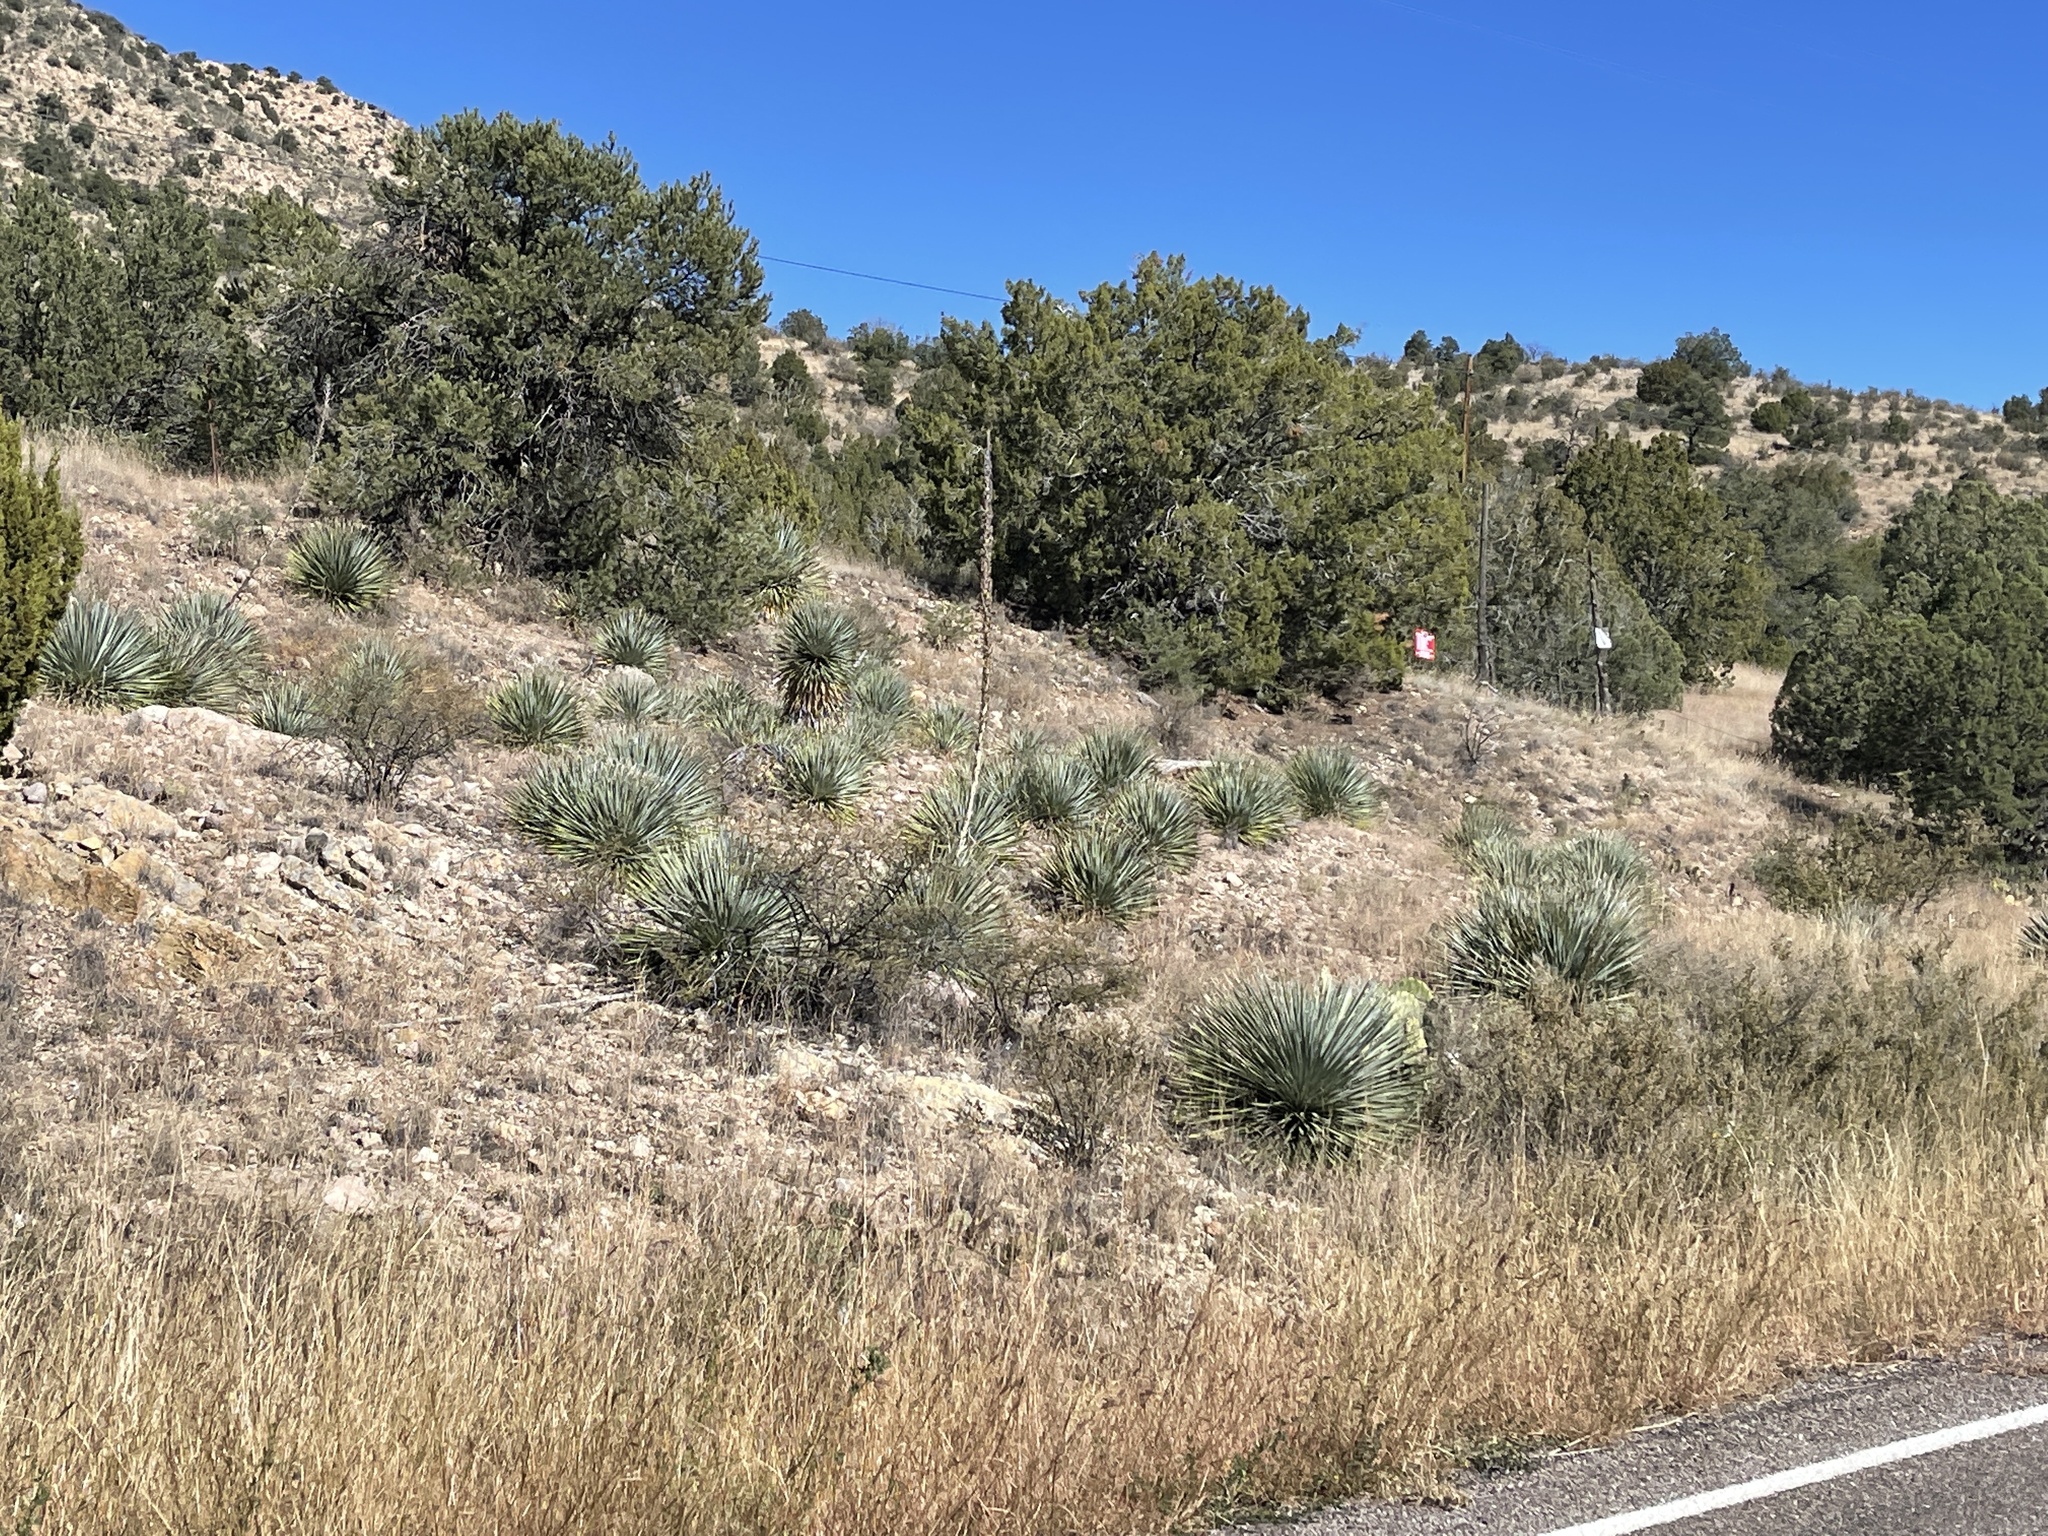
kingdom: Plantae
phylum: Tracheophyta
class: Liliopsida
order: Asparagales
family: Asparagaceae
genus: Dasylirion
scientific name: Dasylirion wheeleri
